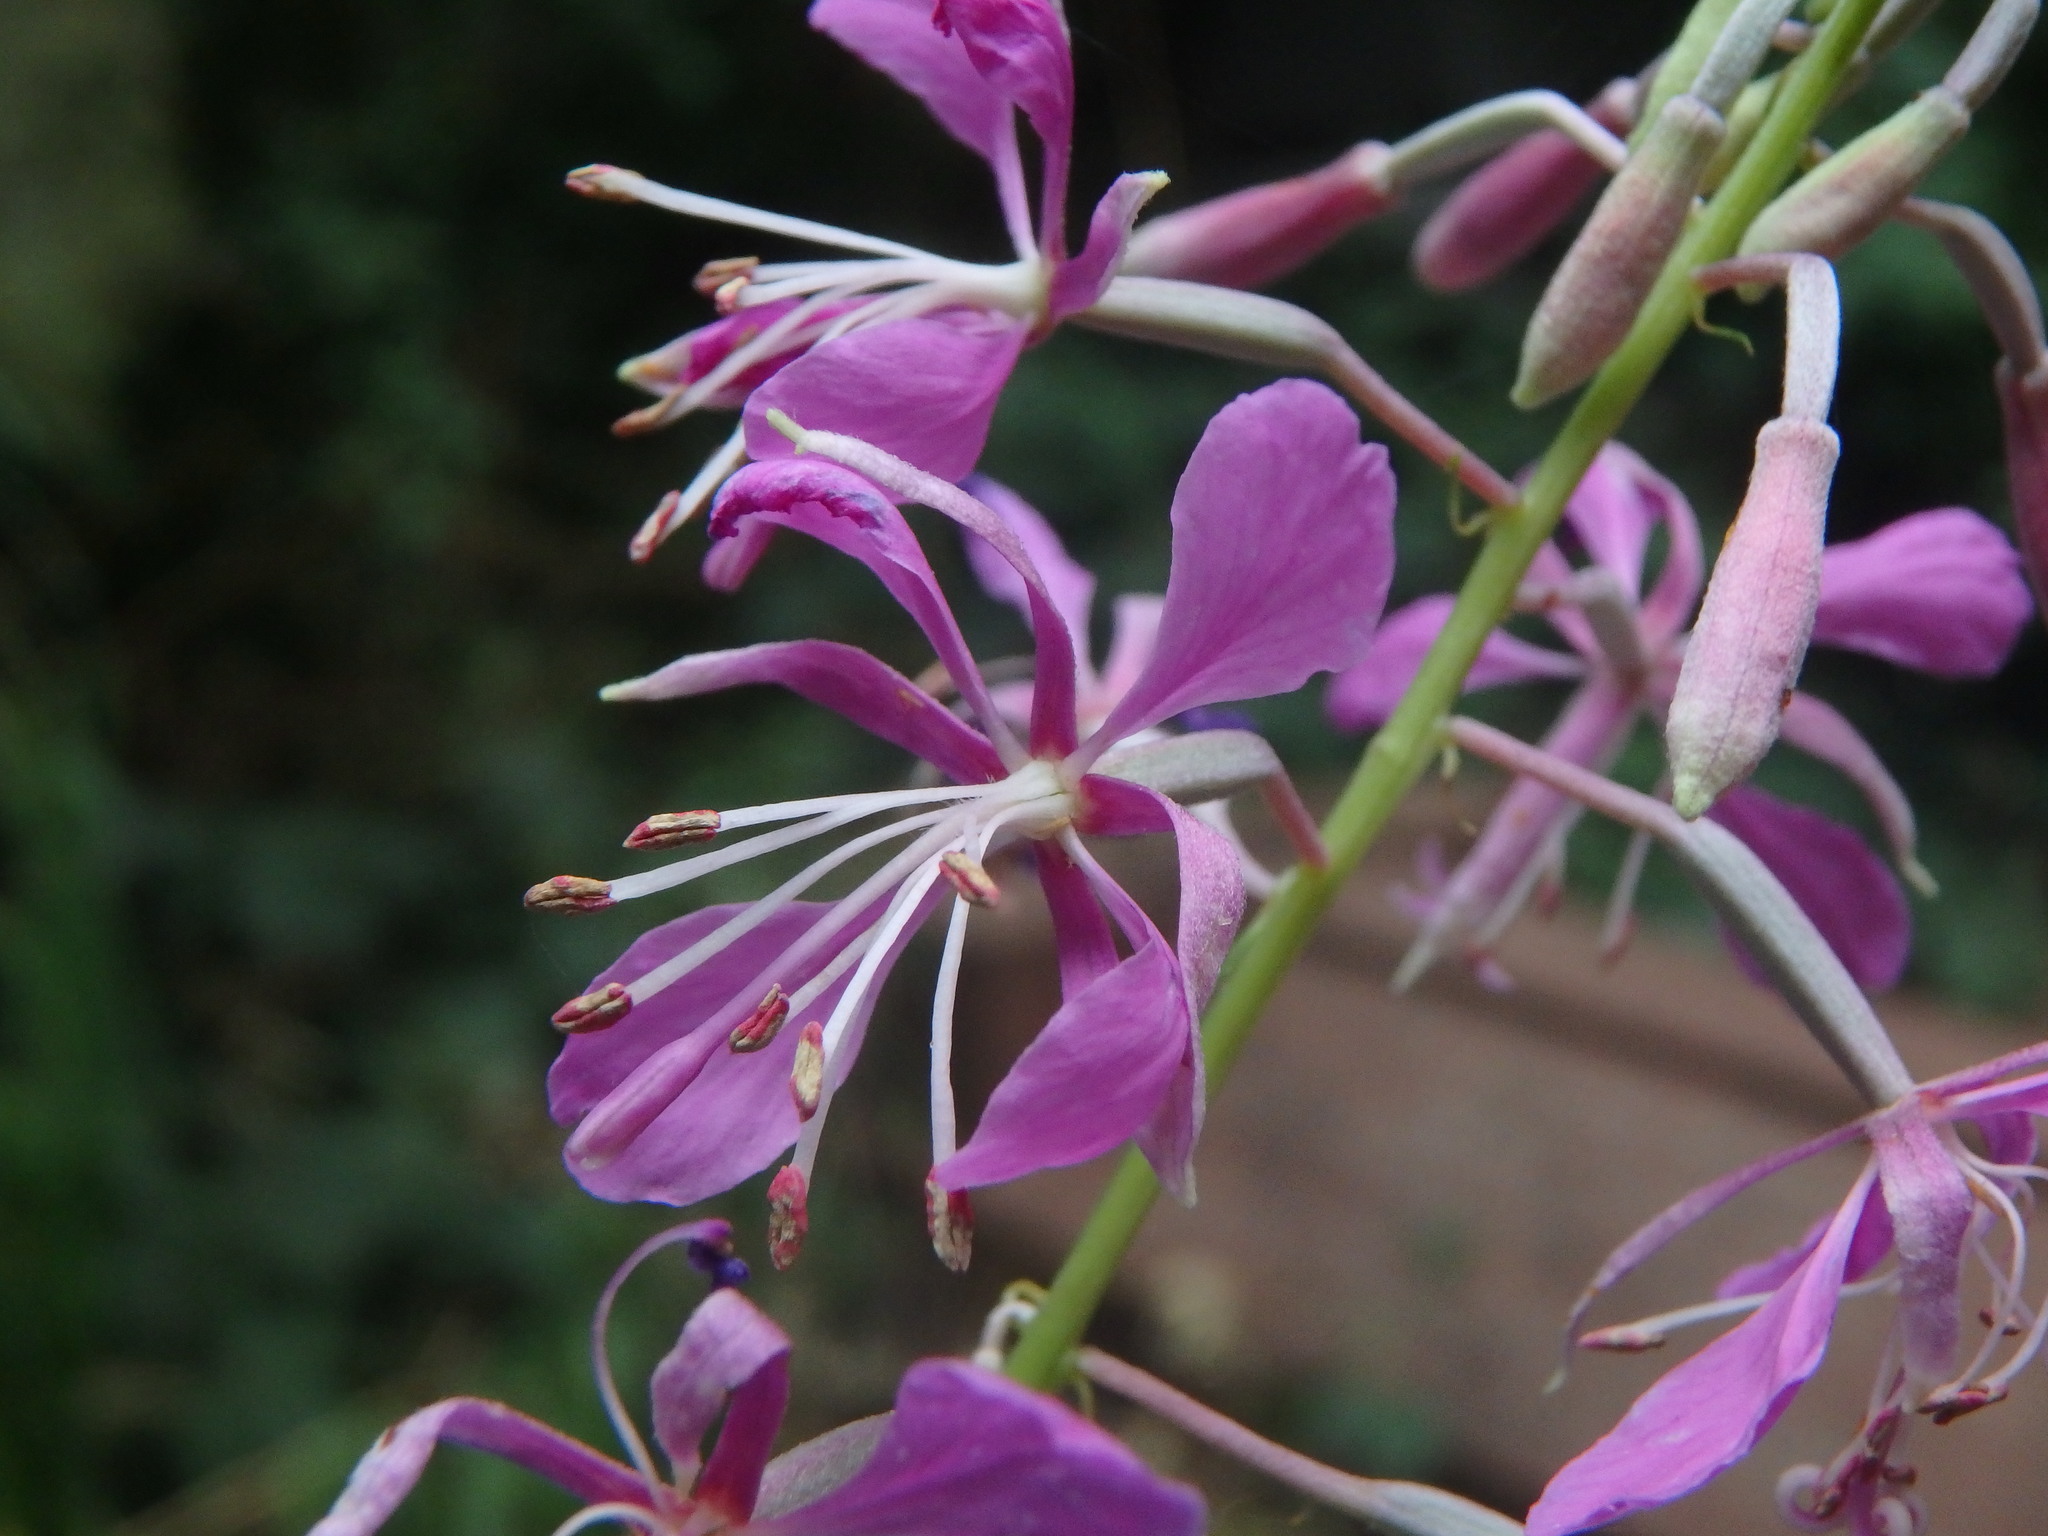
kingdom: Plantae
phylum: Tracheophyta
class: Magnoliopsida
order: Myrtales
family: Onagraceae
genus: Chamaenerion
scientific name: Chamaenerion angustifolium
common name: Fireweed
